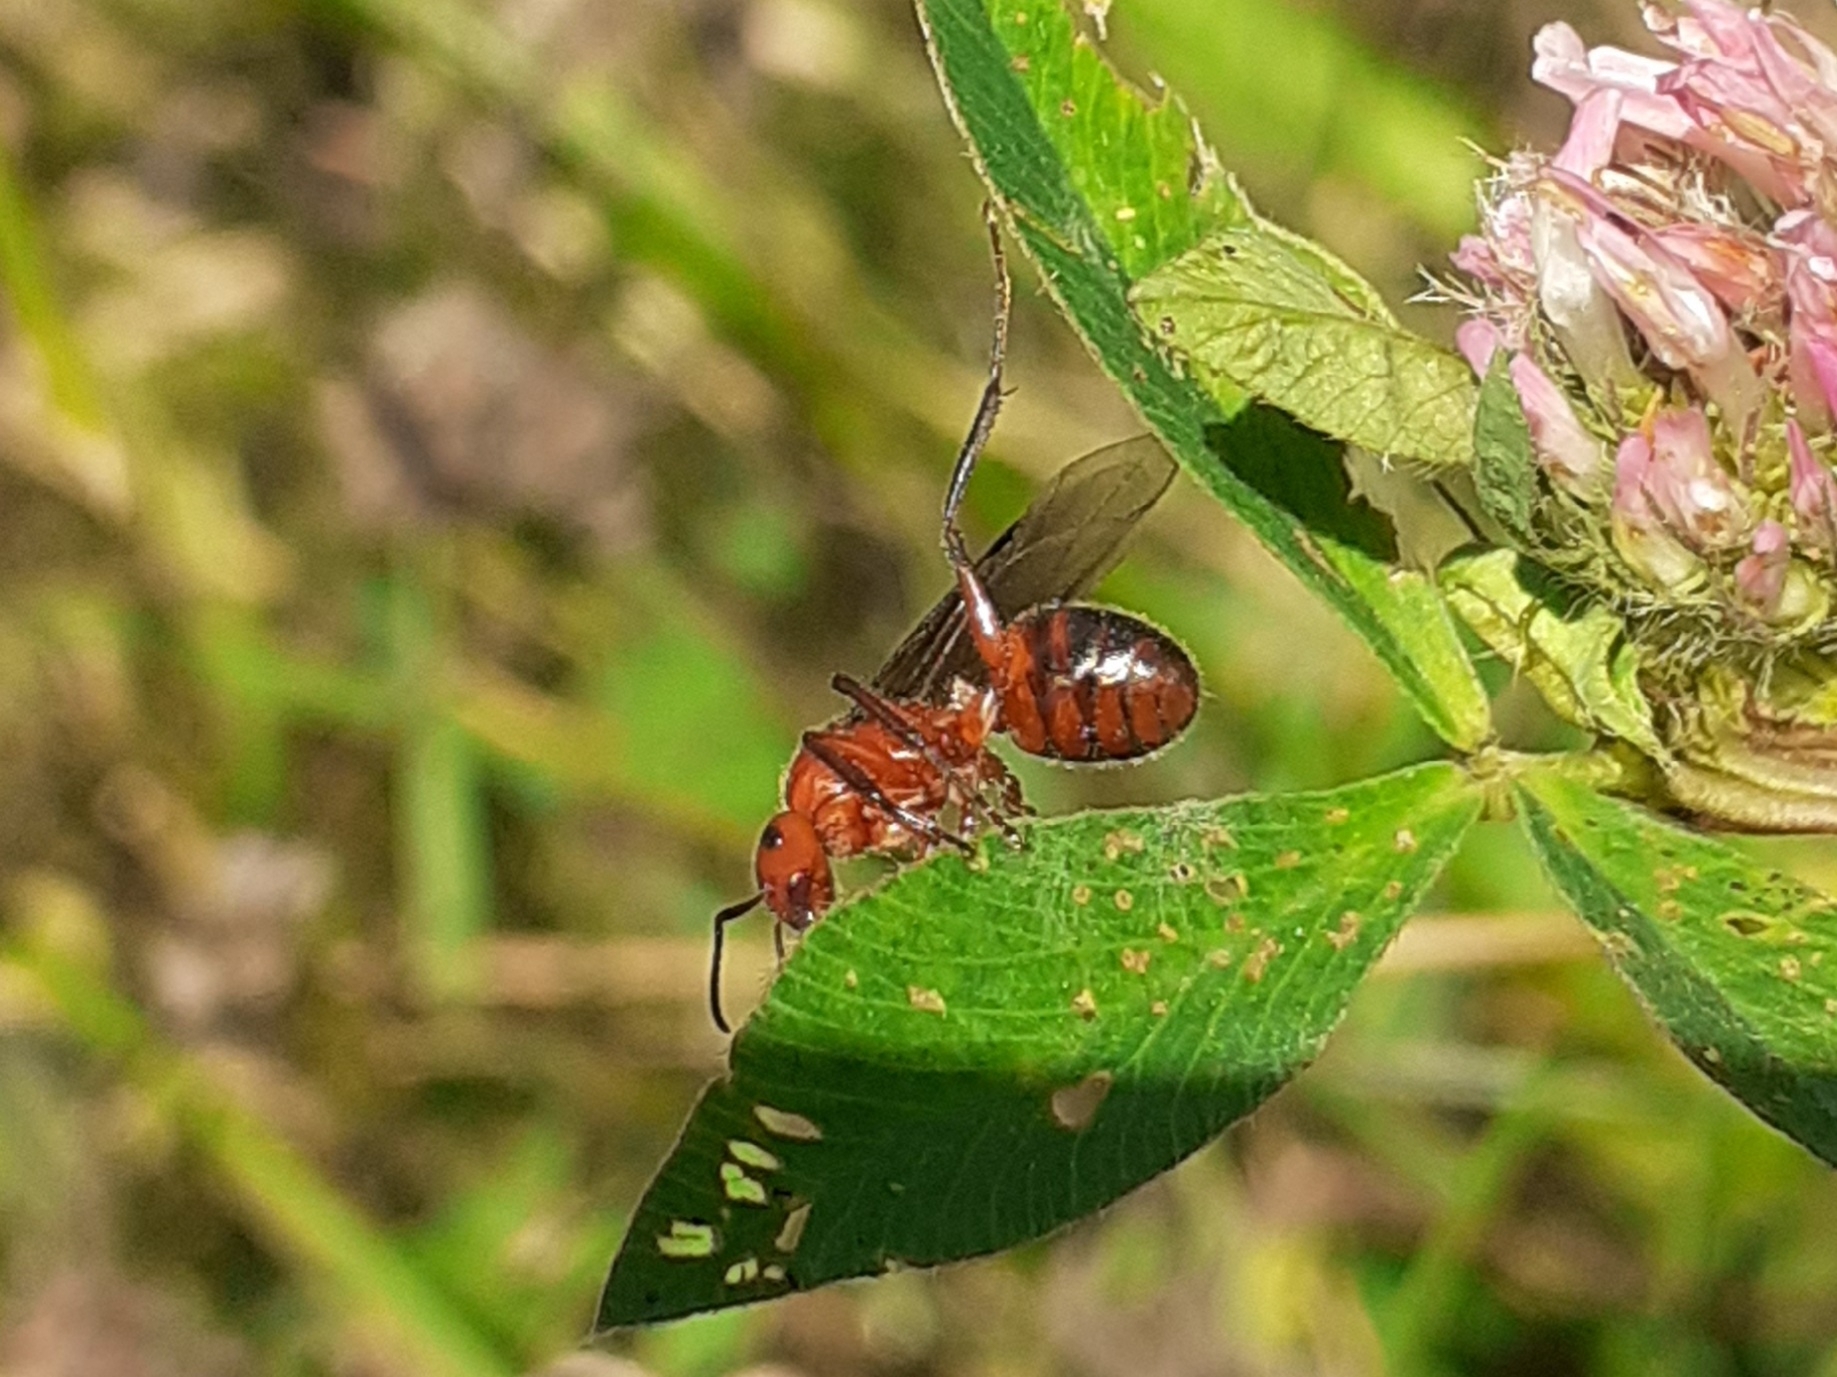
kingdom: Animalia
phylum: Arthropoda
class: Insecta
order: Hymenoptera
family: Formicidae
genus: Formica
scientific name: Formica truncorum
